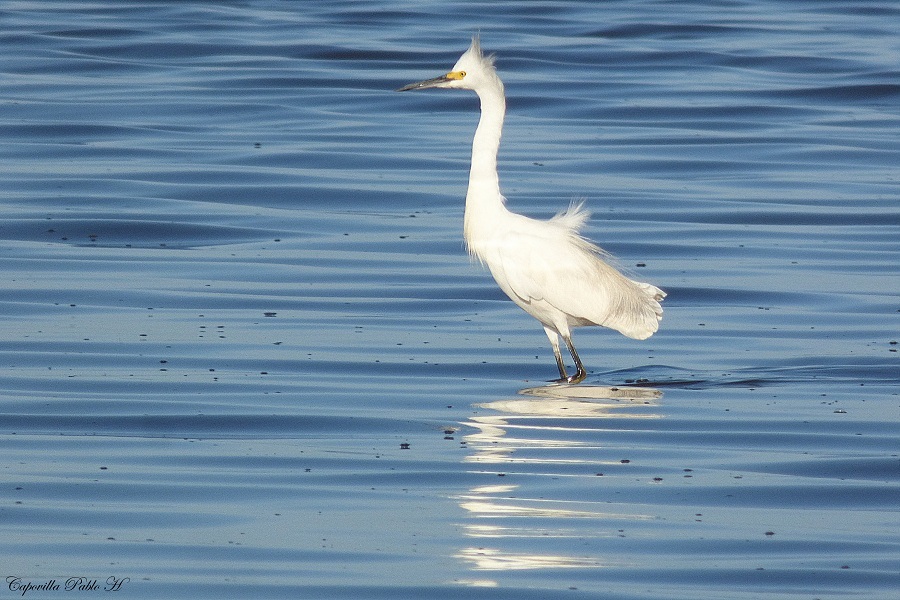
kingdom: Animalia
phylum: Chordata
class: Aves
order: Pelecaniformes
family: Ardeidae
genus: Egretta
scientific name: Egretta thula
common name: Snowy egret
